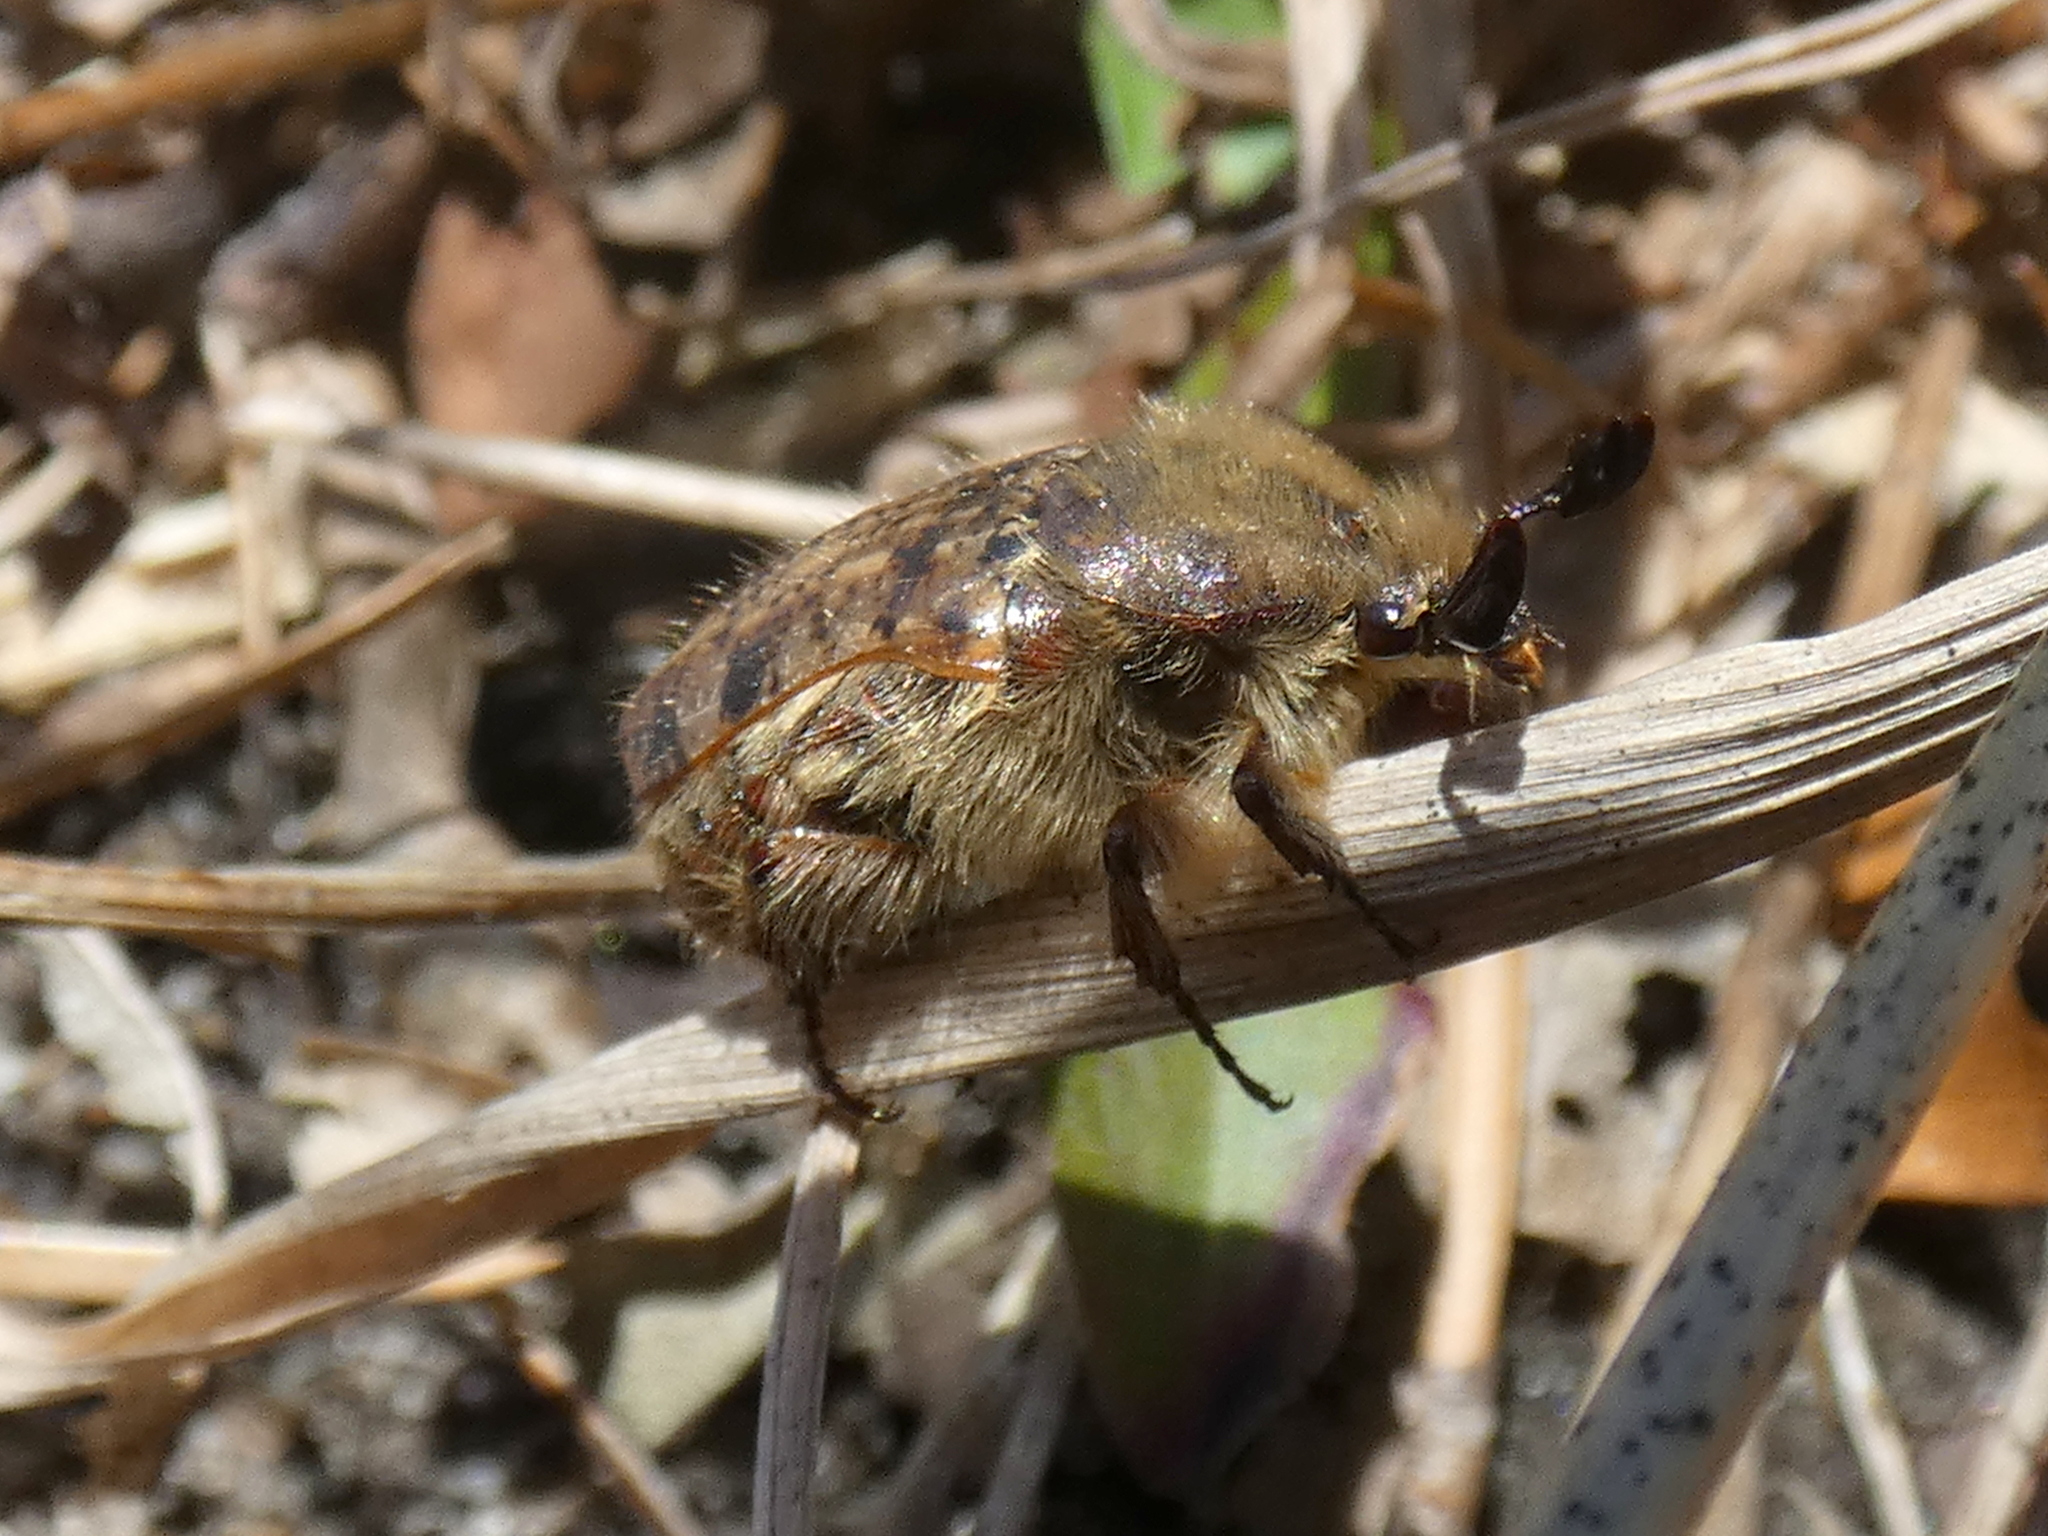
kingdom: Animalia
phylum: Arthropoda
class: Insecta
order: Coleoptera
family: Scarabaeidae
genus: Euphoria
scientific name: Euphoria inda
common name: Bumble flower beetle
